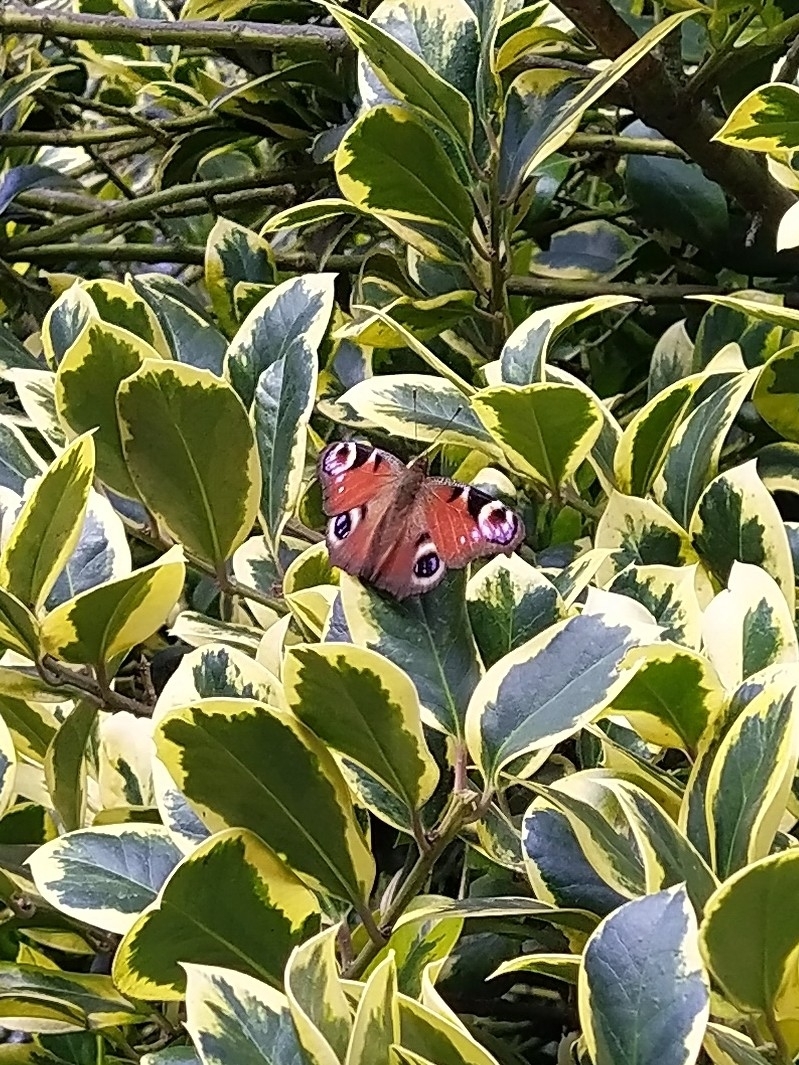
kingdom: Animalia
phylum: Arthropoda
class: Insecta
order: Lepidoptera
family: Nymphalidae
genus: Aglais
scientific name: Aglais io
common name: Peacock
